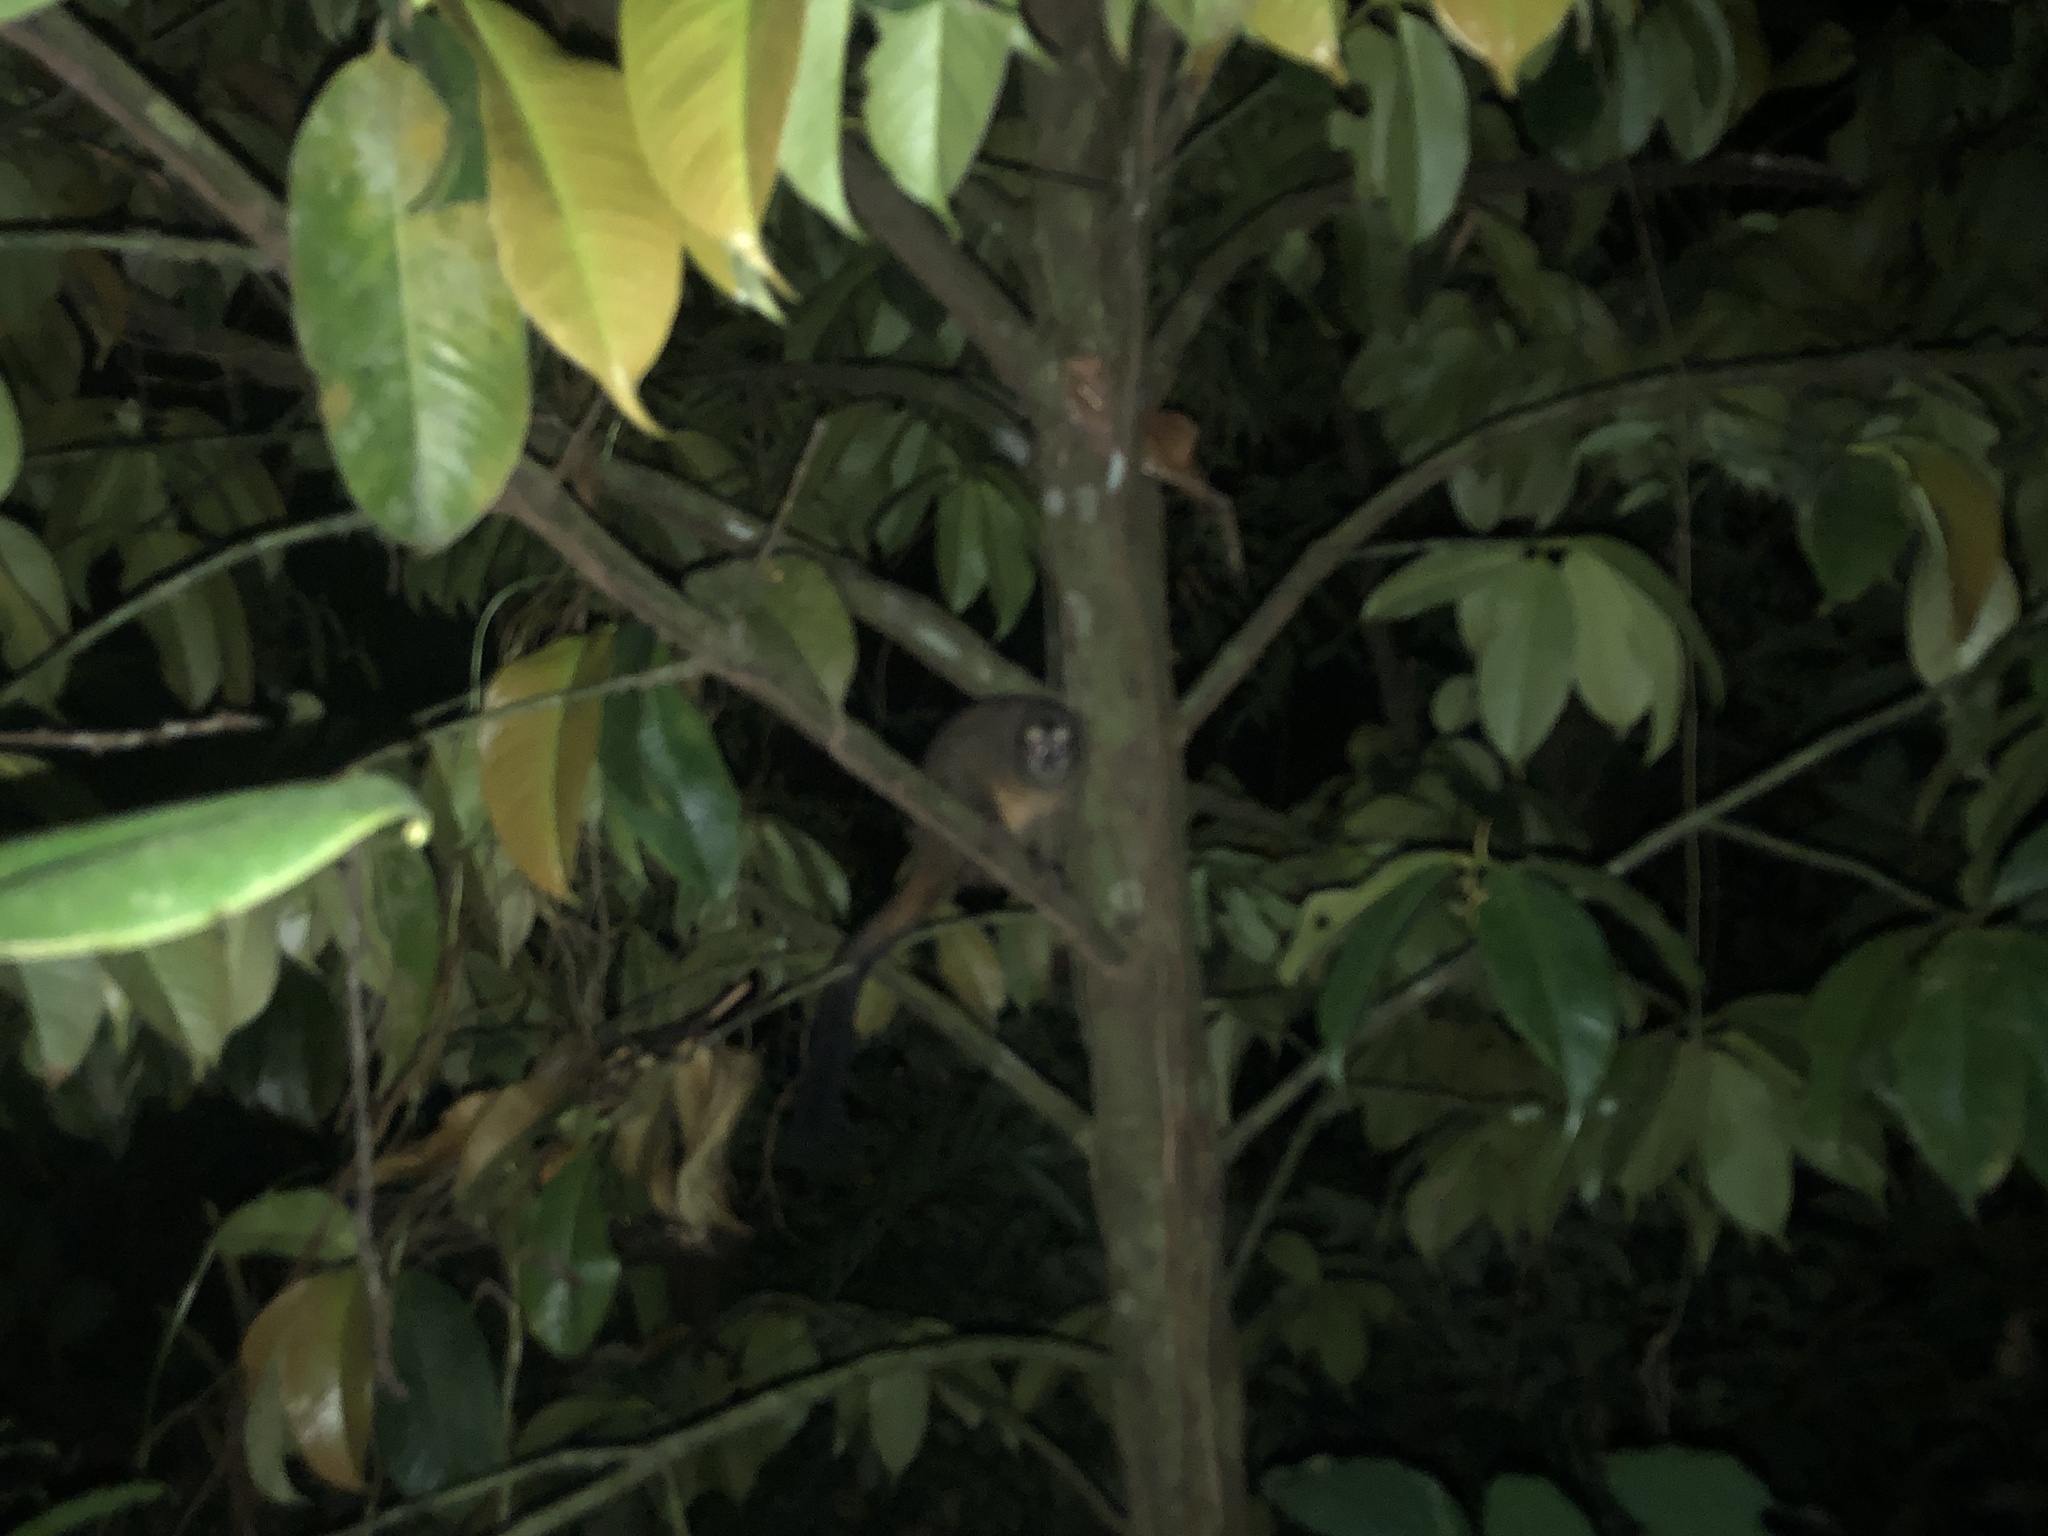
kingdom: Animalia
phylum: Chordata
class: Mammalia
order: Primates
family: Aotidae
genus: Aotus
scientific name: Aotus zonalis
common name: Panamanian night monkey
